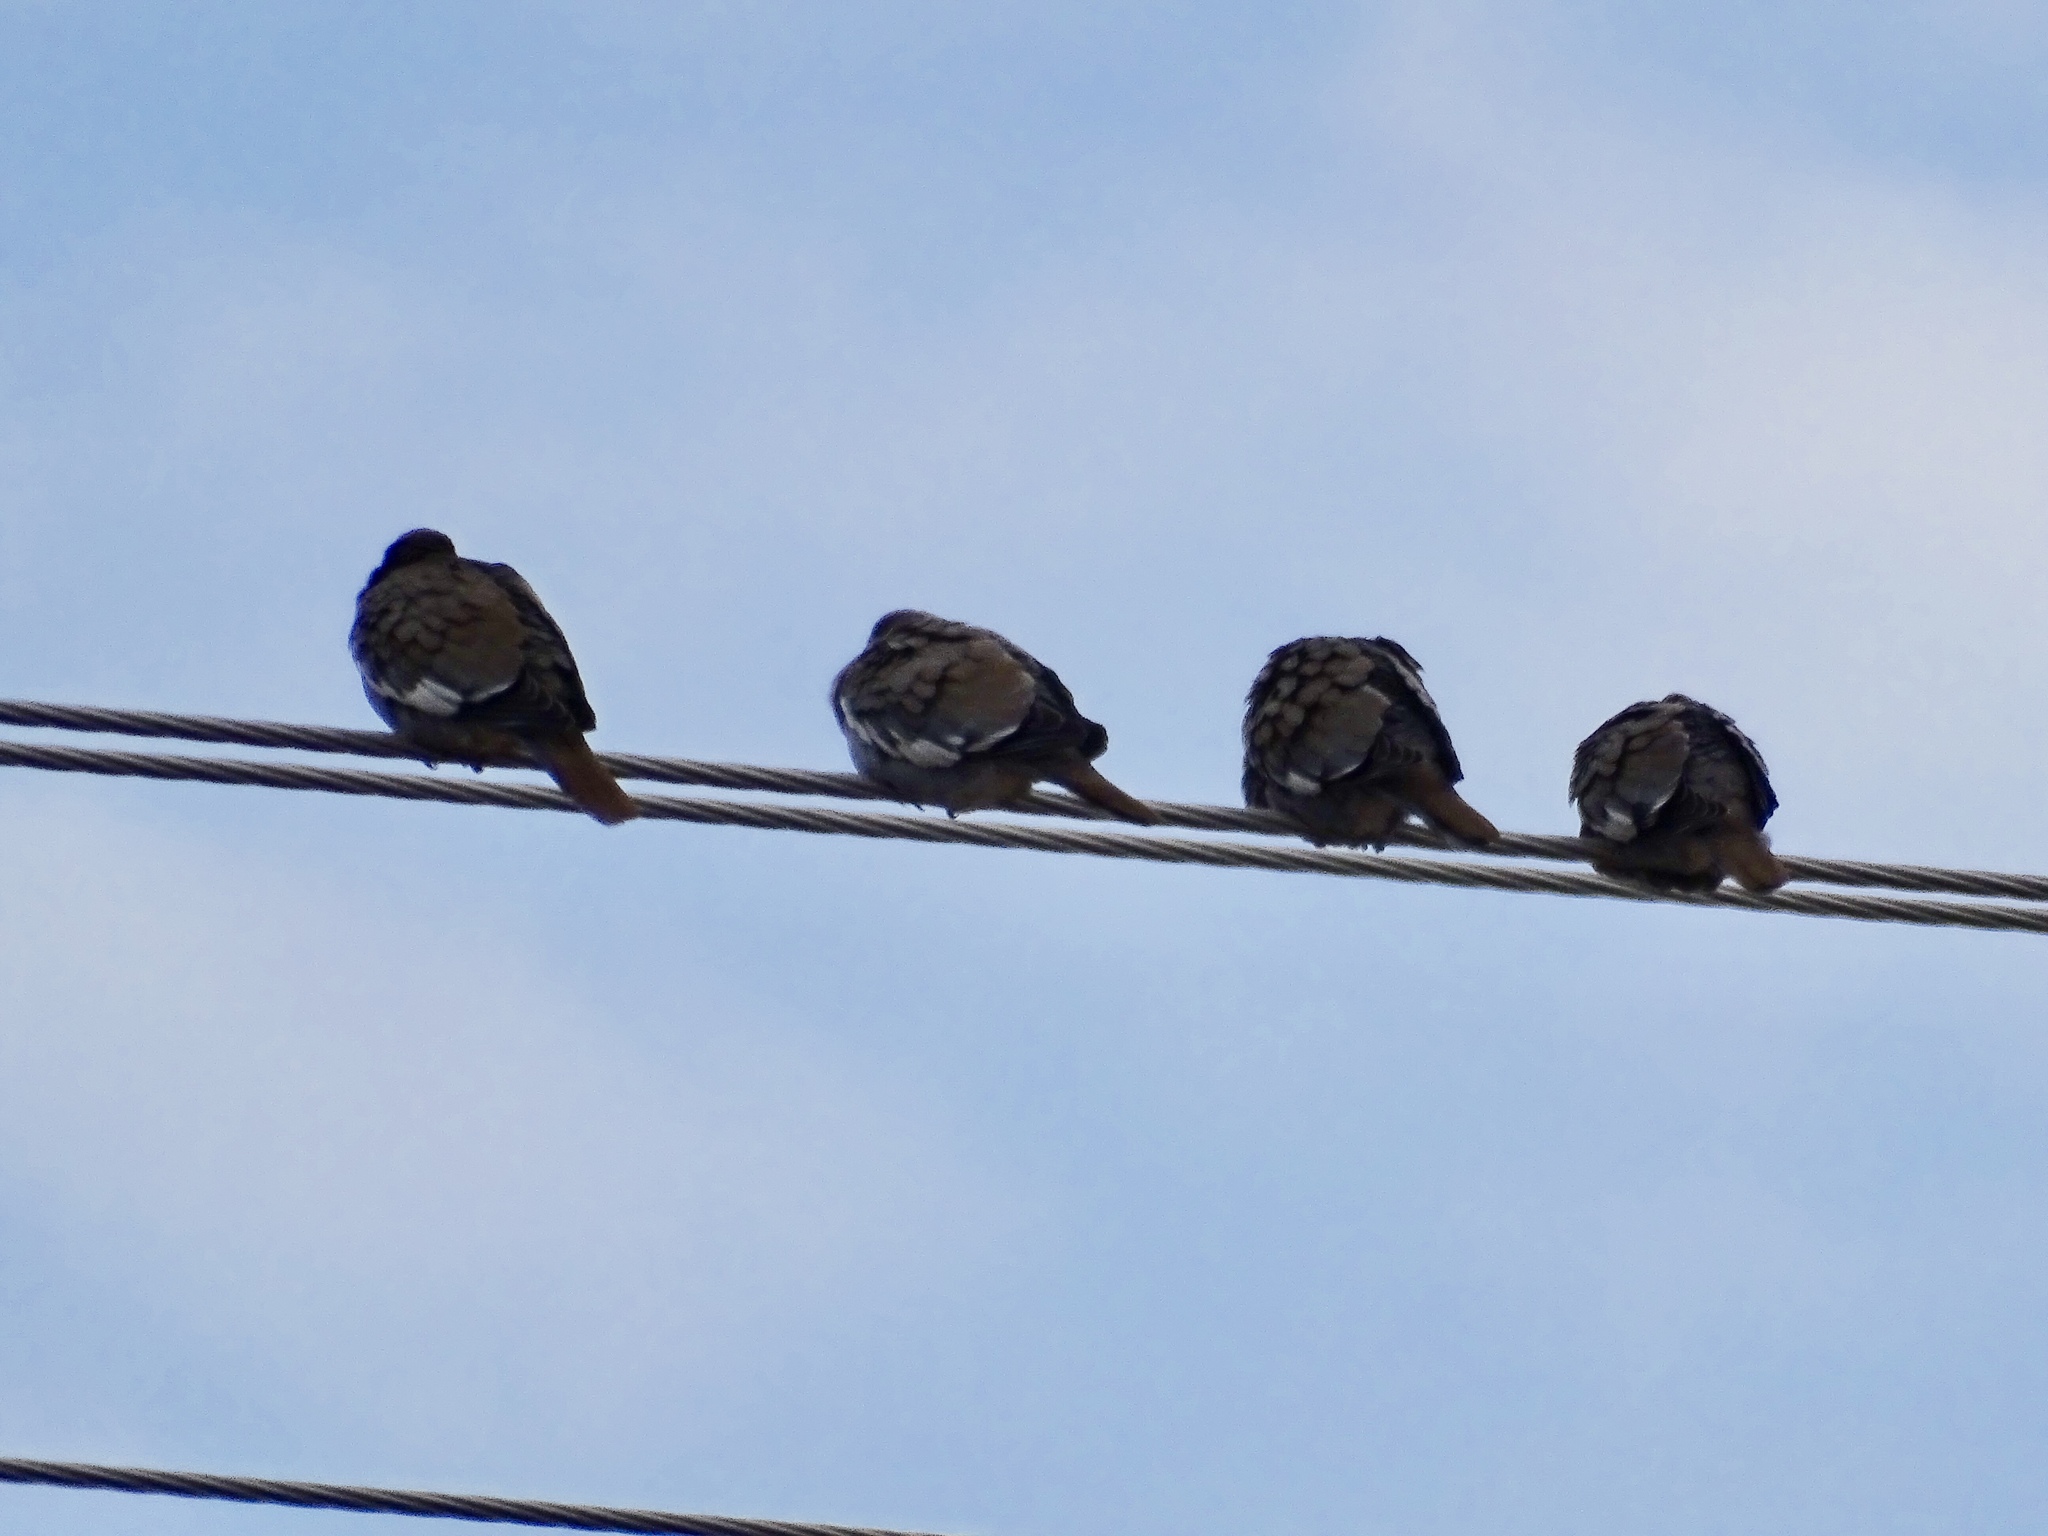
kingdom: Animalia
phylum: Chordata
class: Aves
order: Columbiformes
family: Columbidae
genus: Zenaida
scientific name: Zenaida asiatica
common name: White-winged dove
